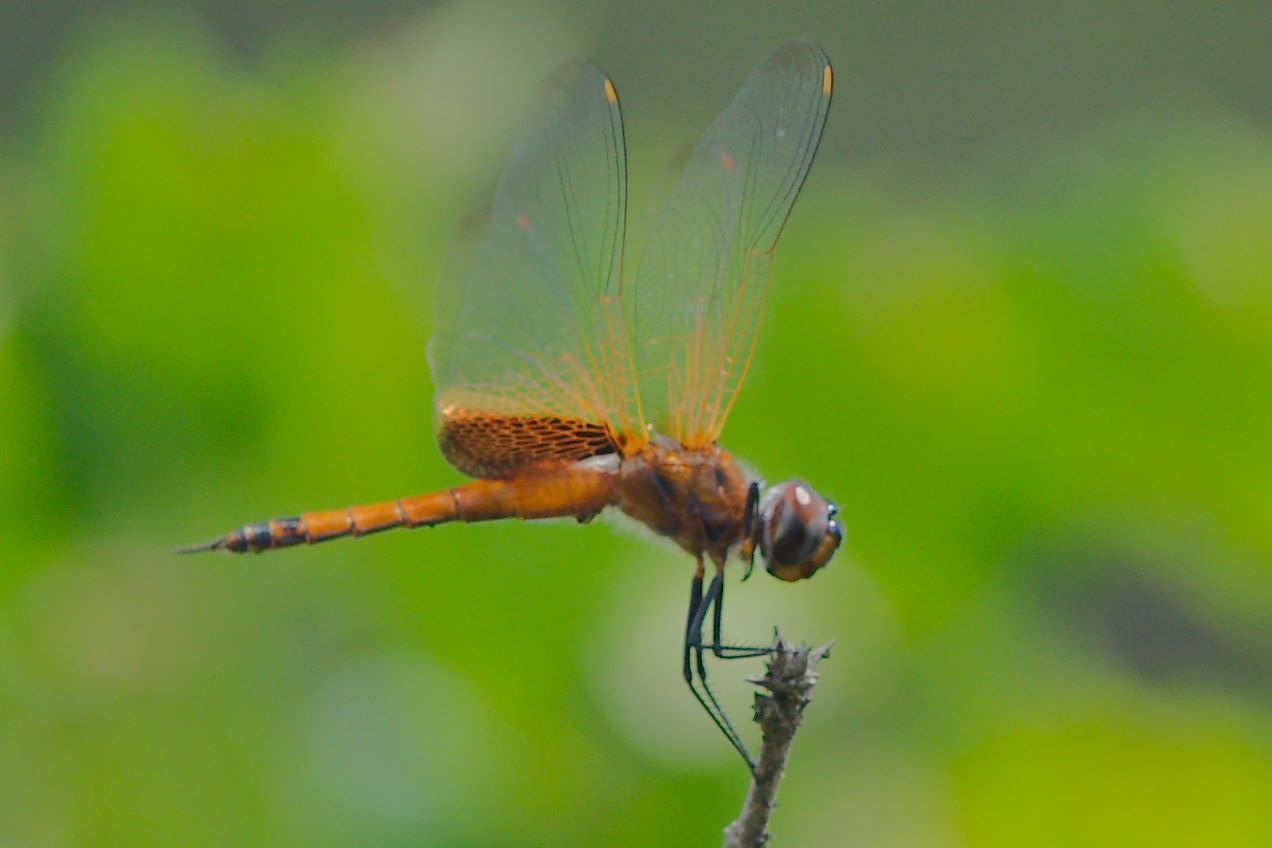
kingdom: Animalia
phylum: Arthropoda
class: Insecta
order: Odonata
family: Libellulidae
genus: Tramea
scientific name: Tramea binotata
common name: Sooty saddlebags
